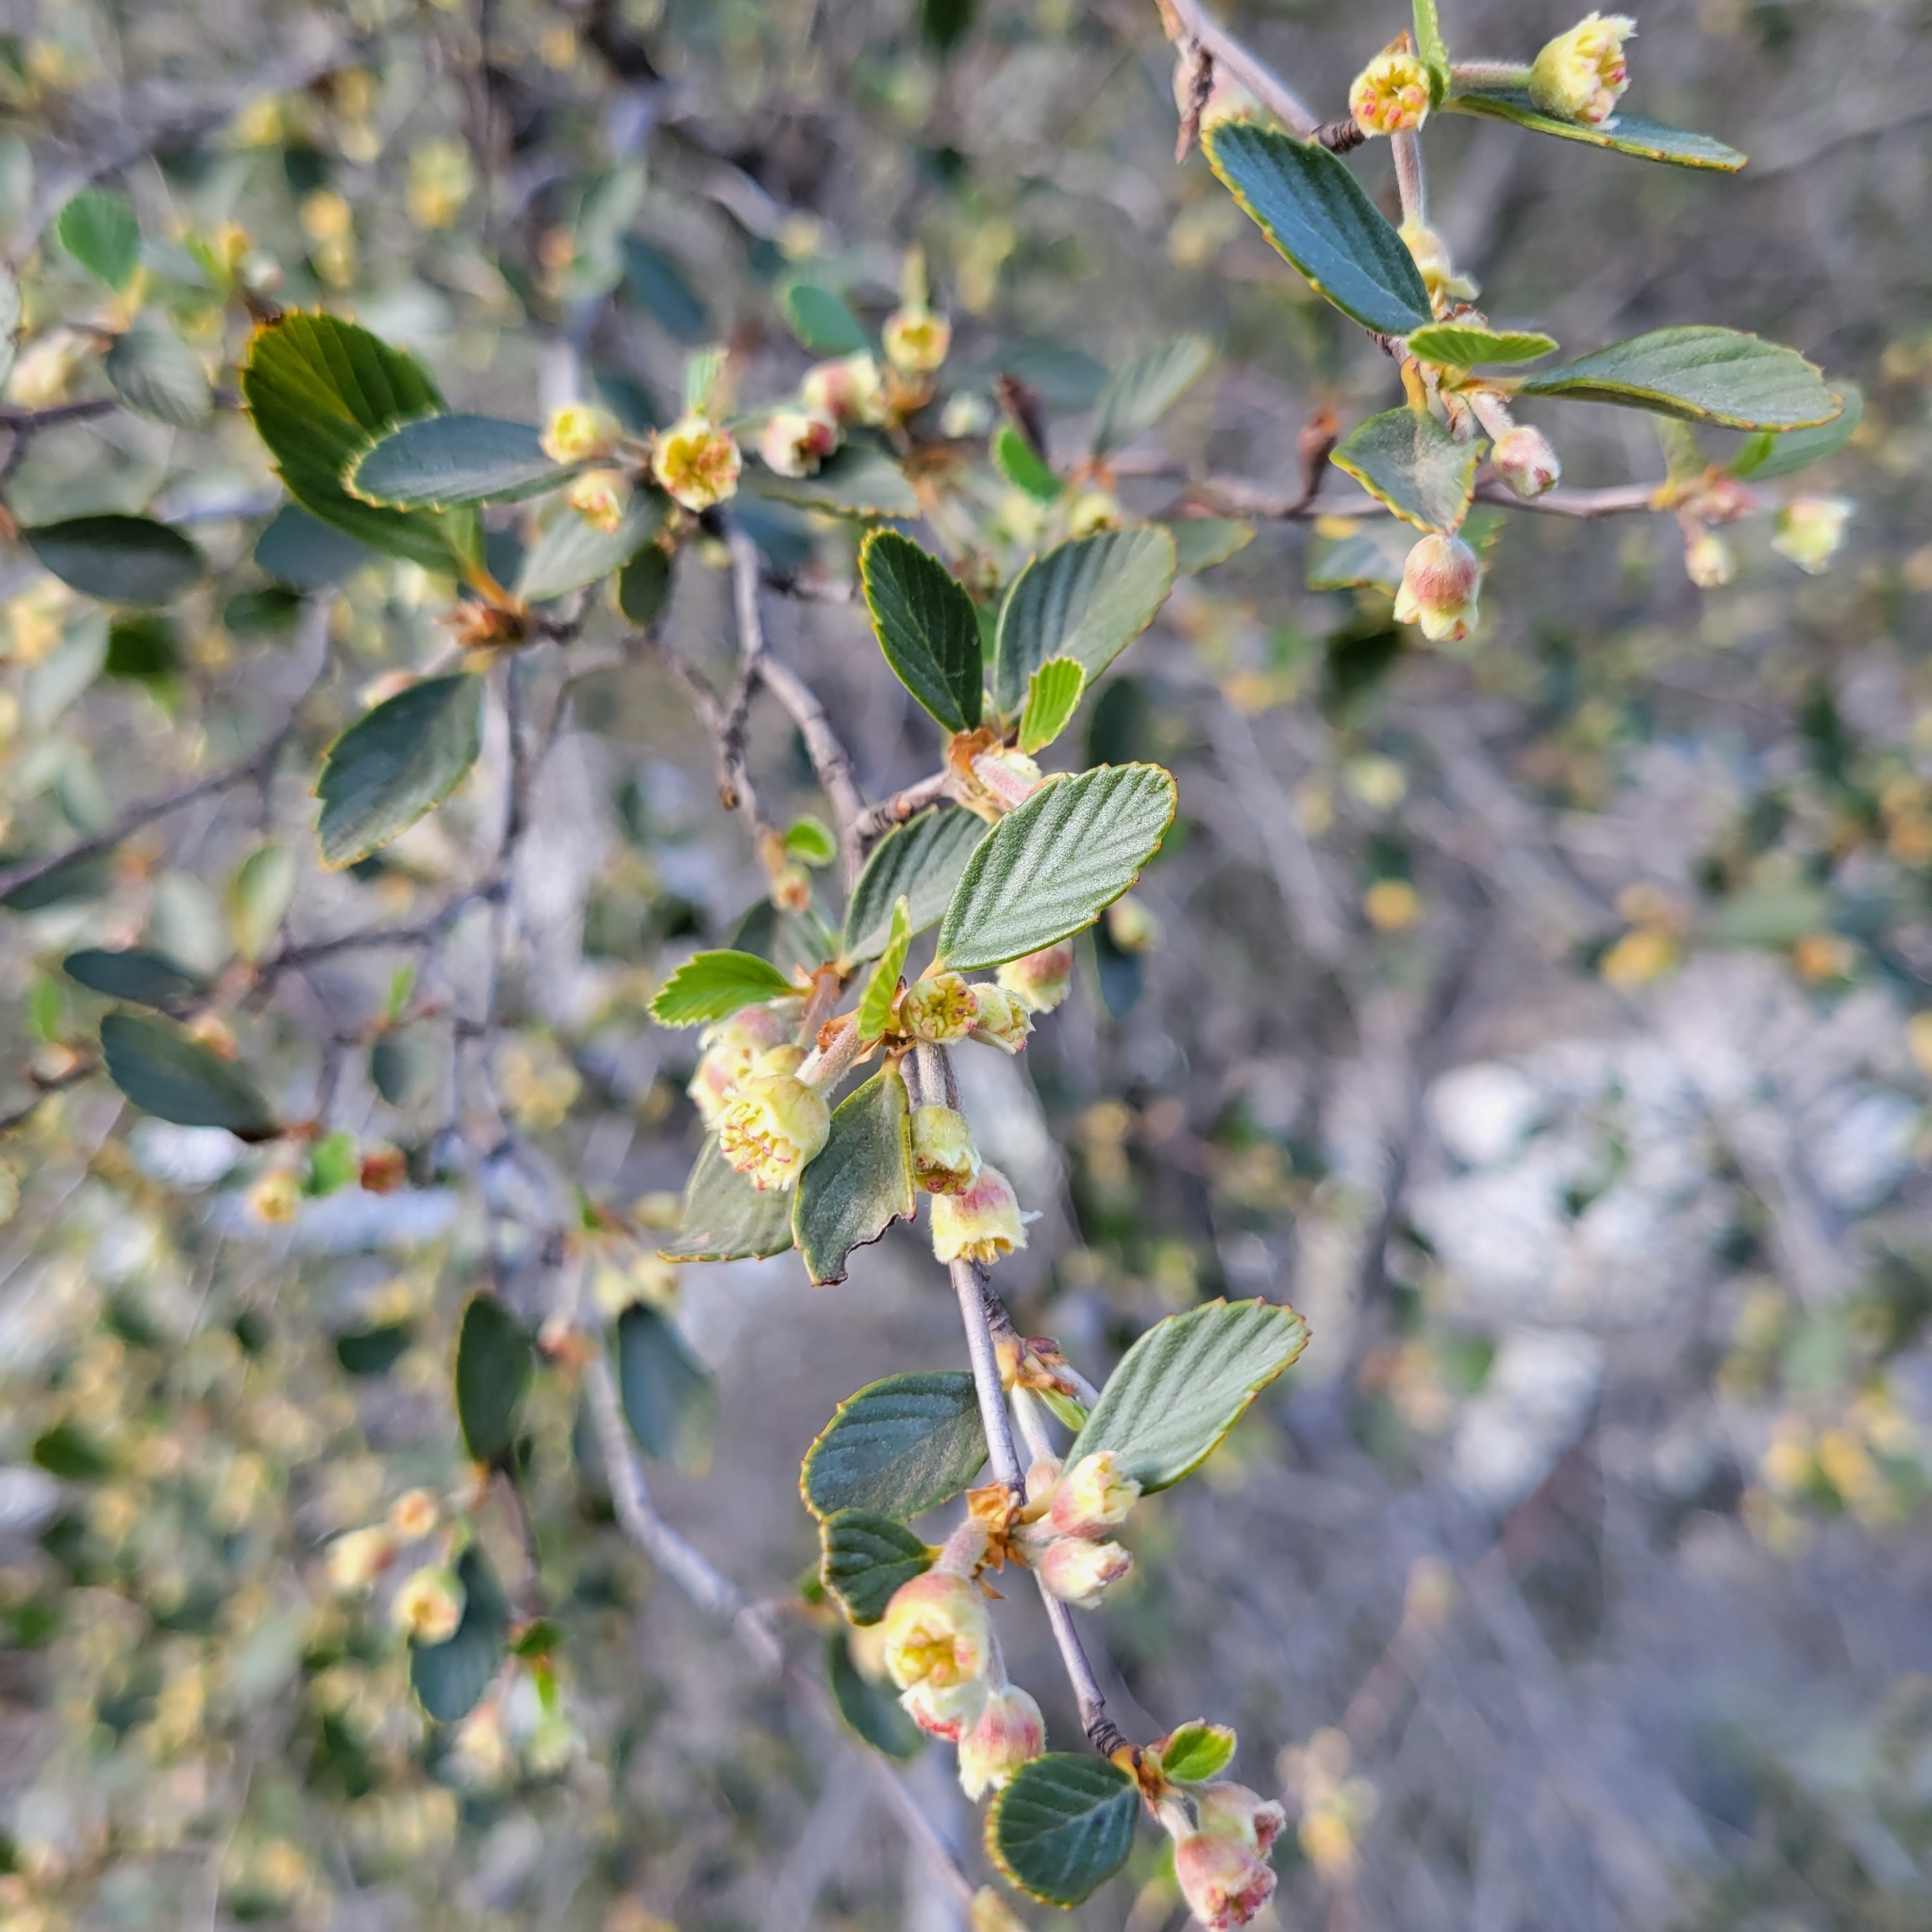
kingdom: Plantae
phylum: Tracheophyta
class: Magnoliopsida
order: Rosales
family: Rosaceae
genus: Cercocarpus
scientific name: Cercocarpus betuloides
